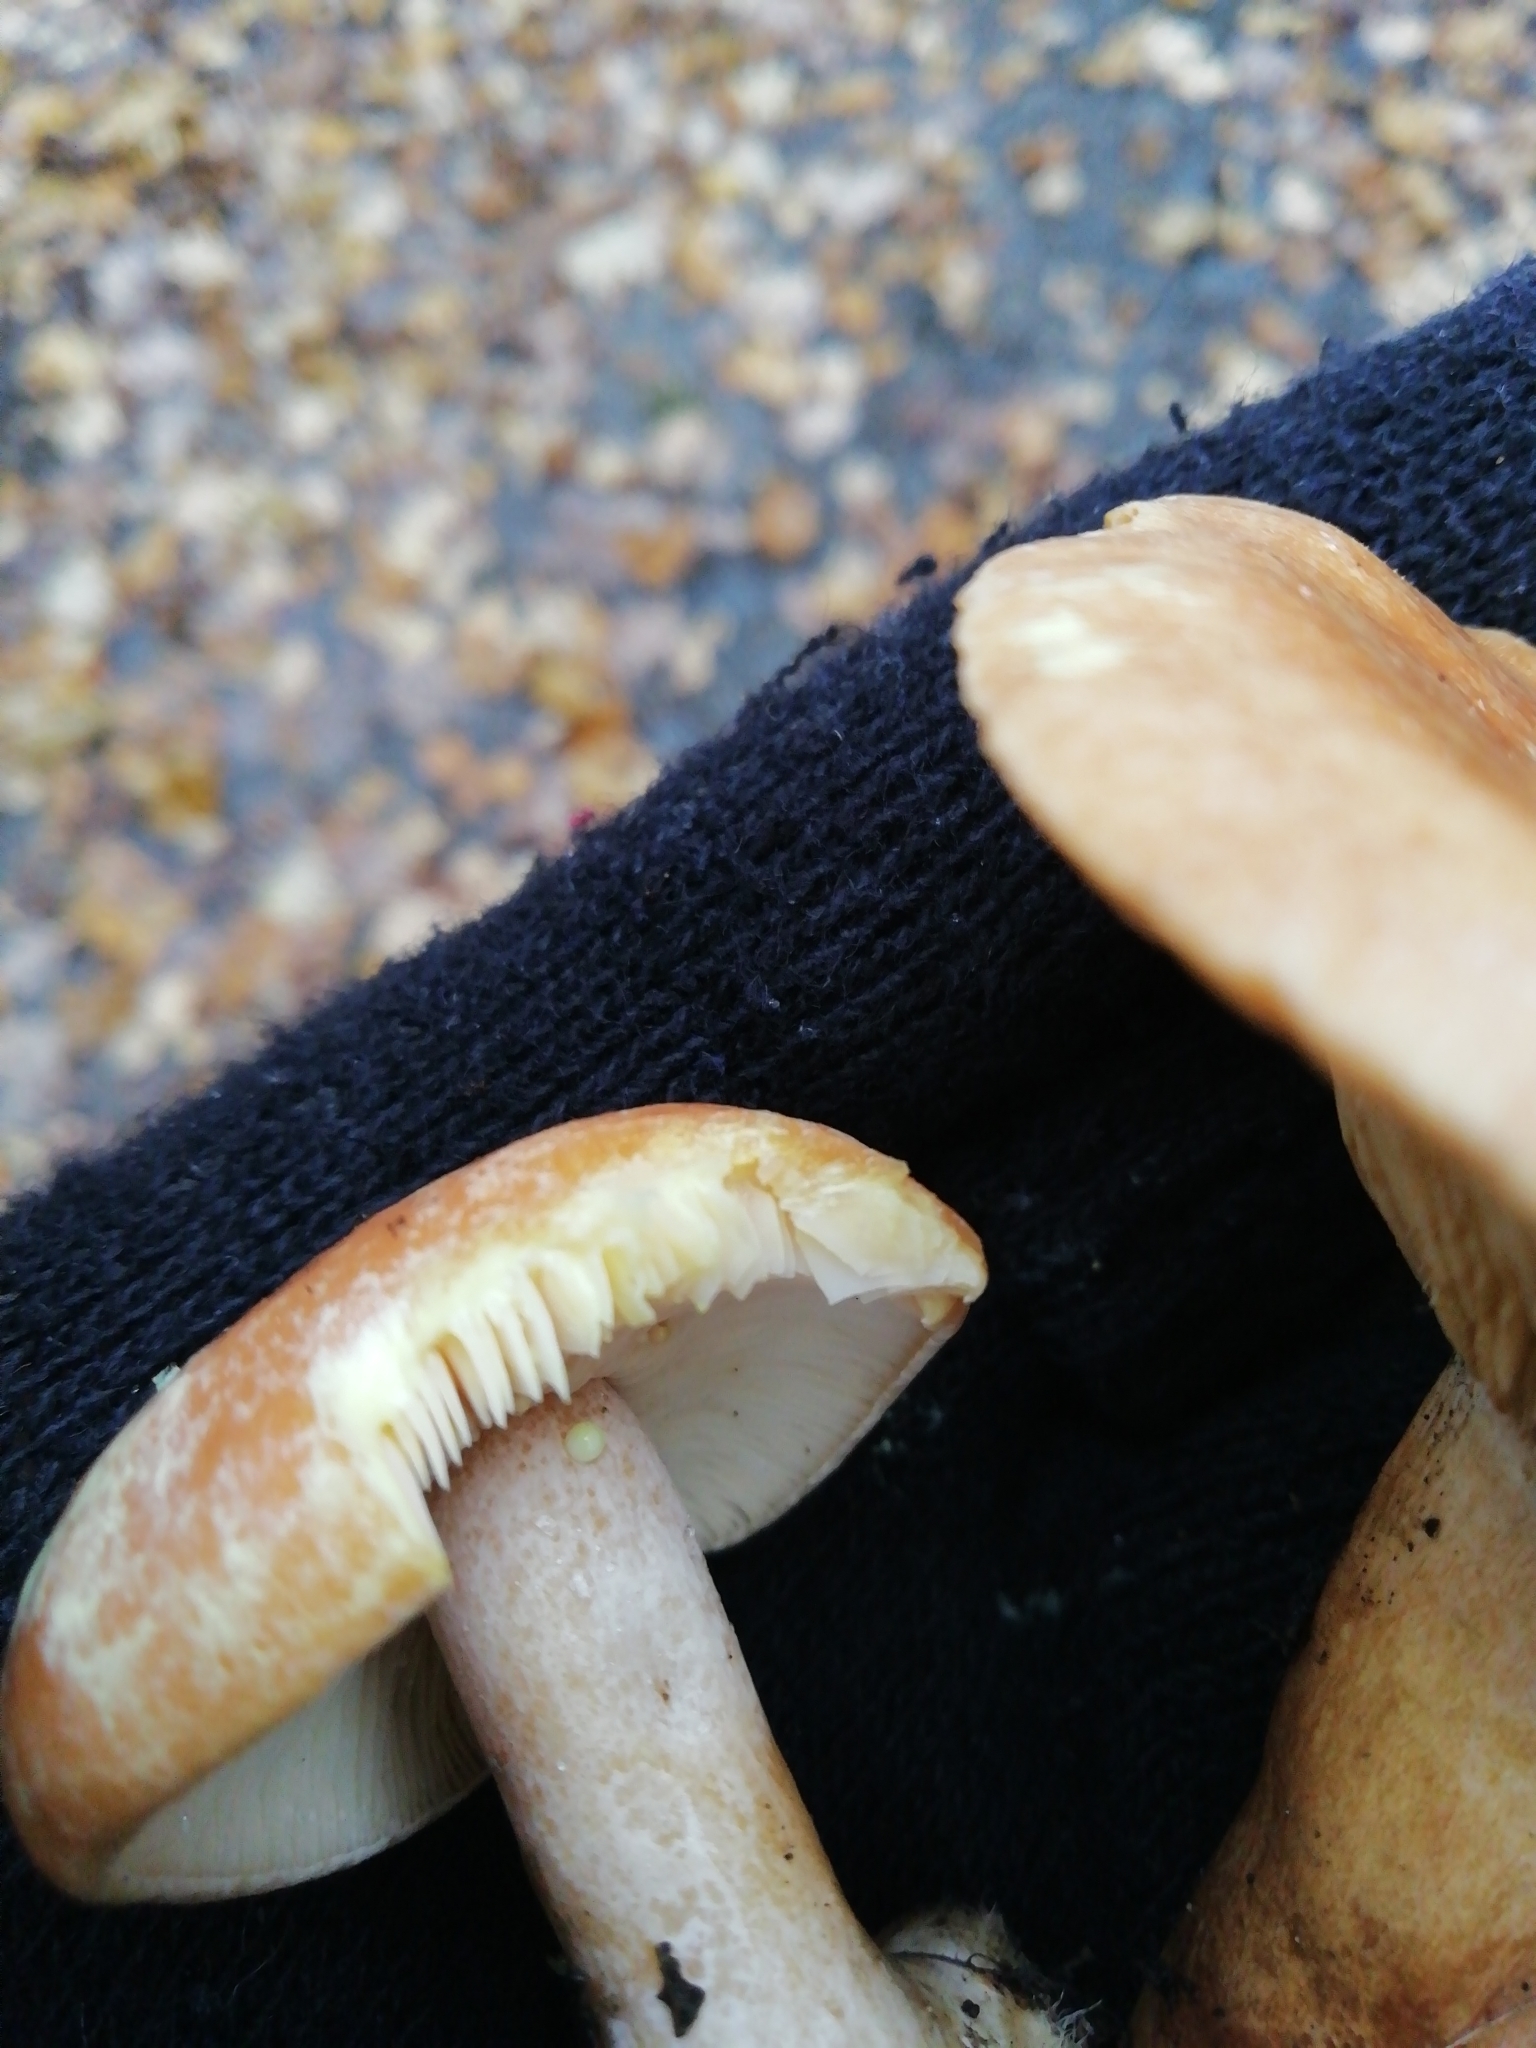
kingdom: Fungi
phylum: Basidiomycota
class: Agaricomycetes
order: Russulales
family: Russulaceae
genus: Lactarius
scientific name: Lactarius chrysorrheus
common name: Yellowdrop milkcap
